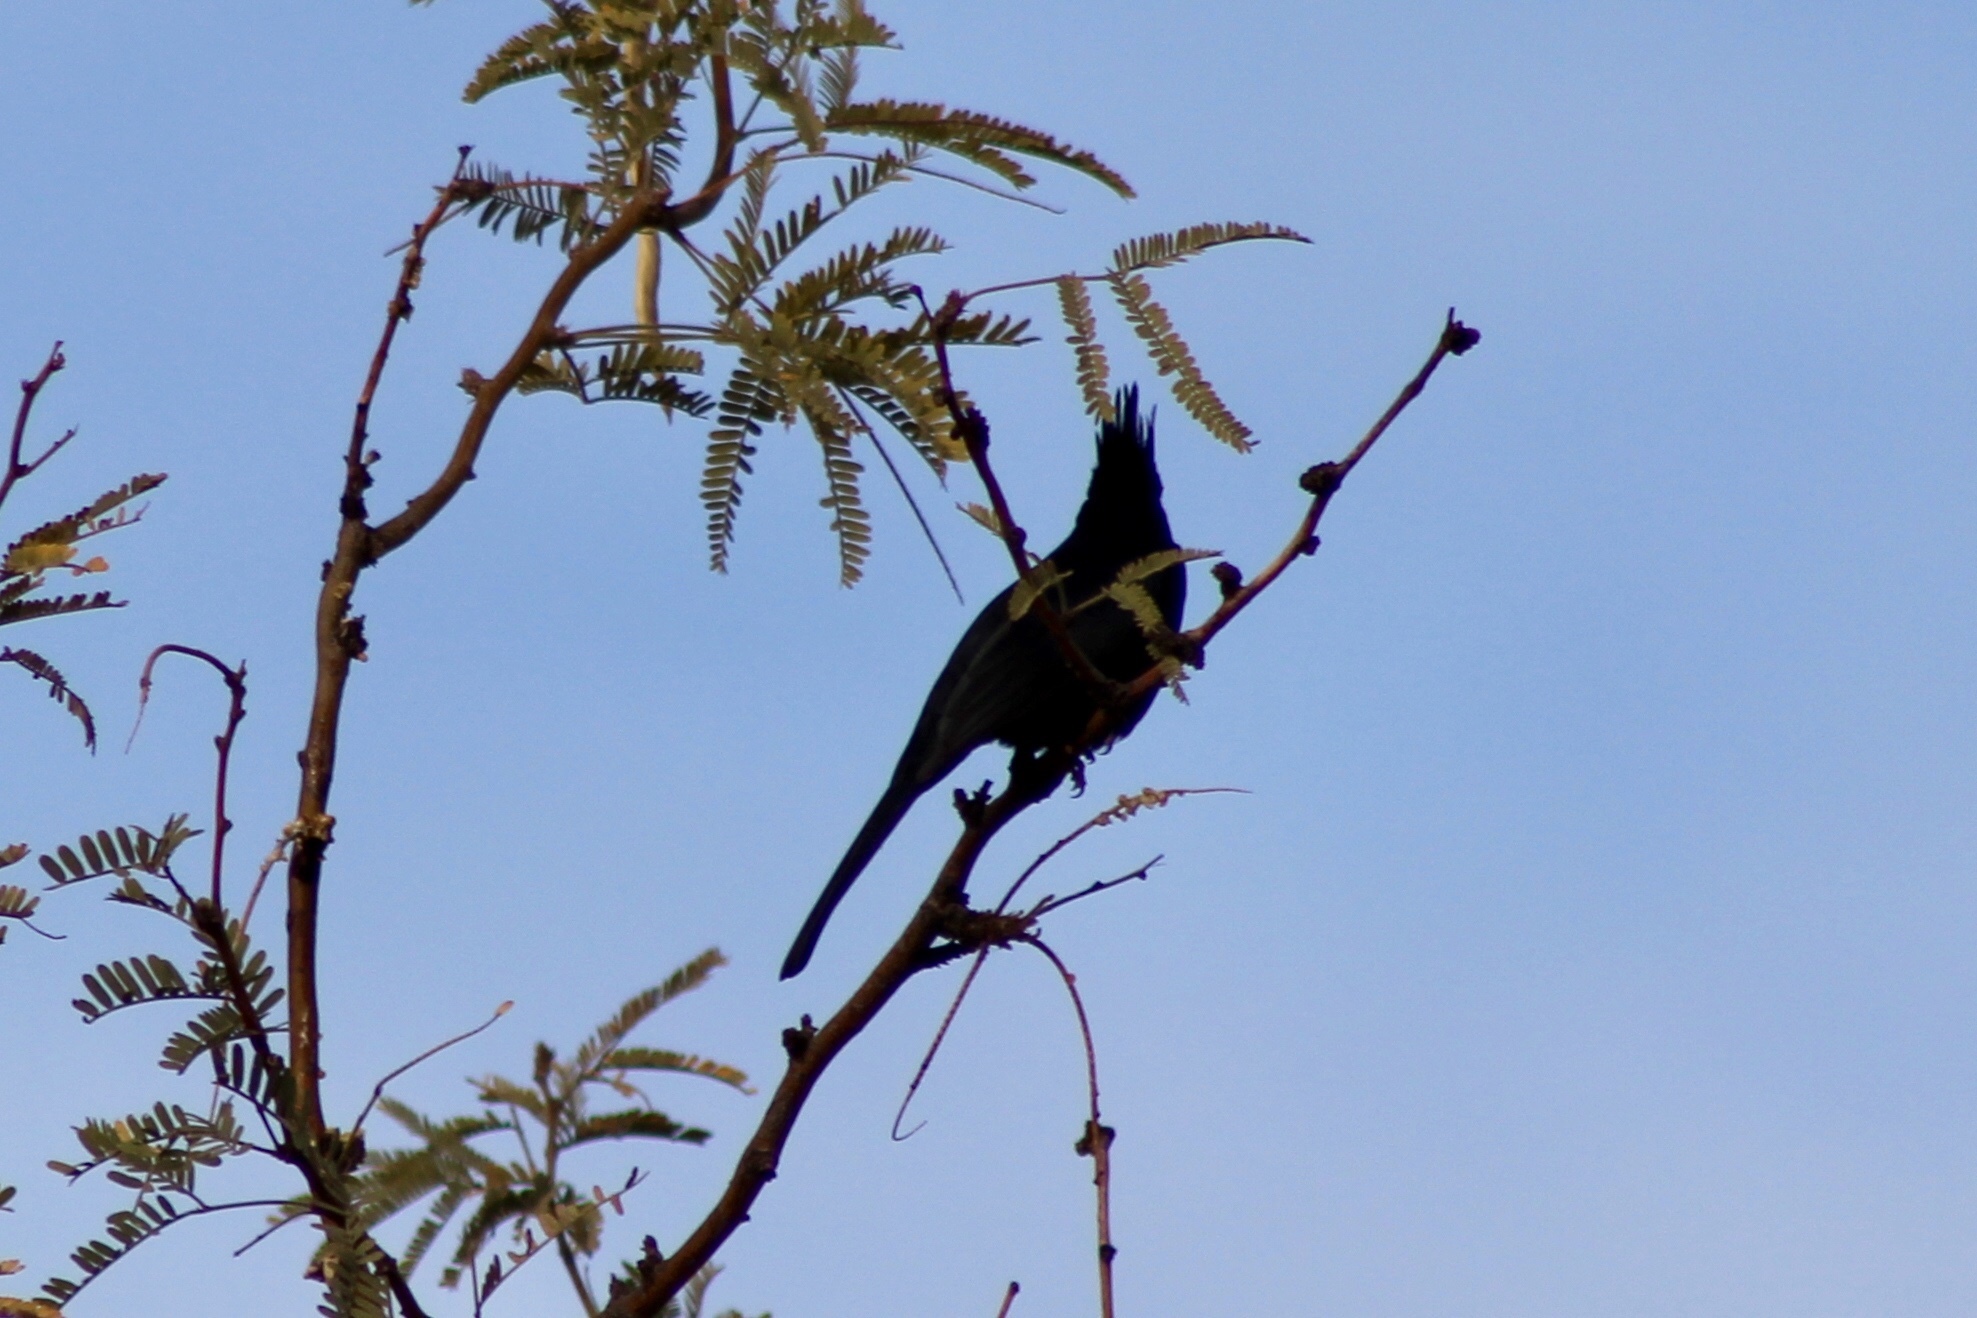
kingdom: Animalia
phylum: Chordata
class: Aves
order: Passeriformes
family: Ptilogonatidae
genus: Phainopepla
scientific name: Phainopepla nitens
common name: Phainopepla
